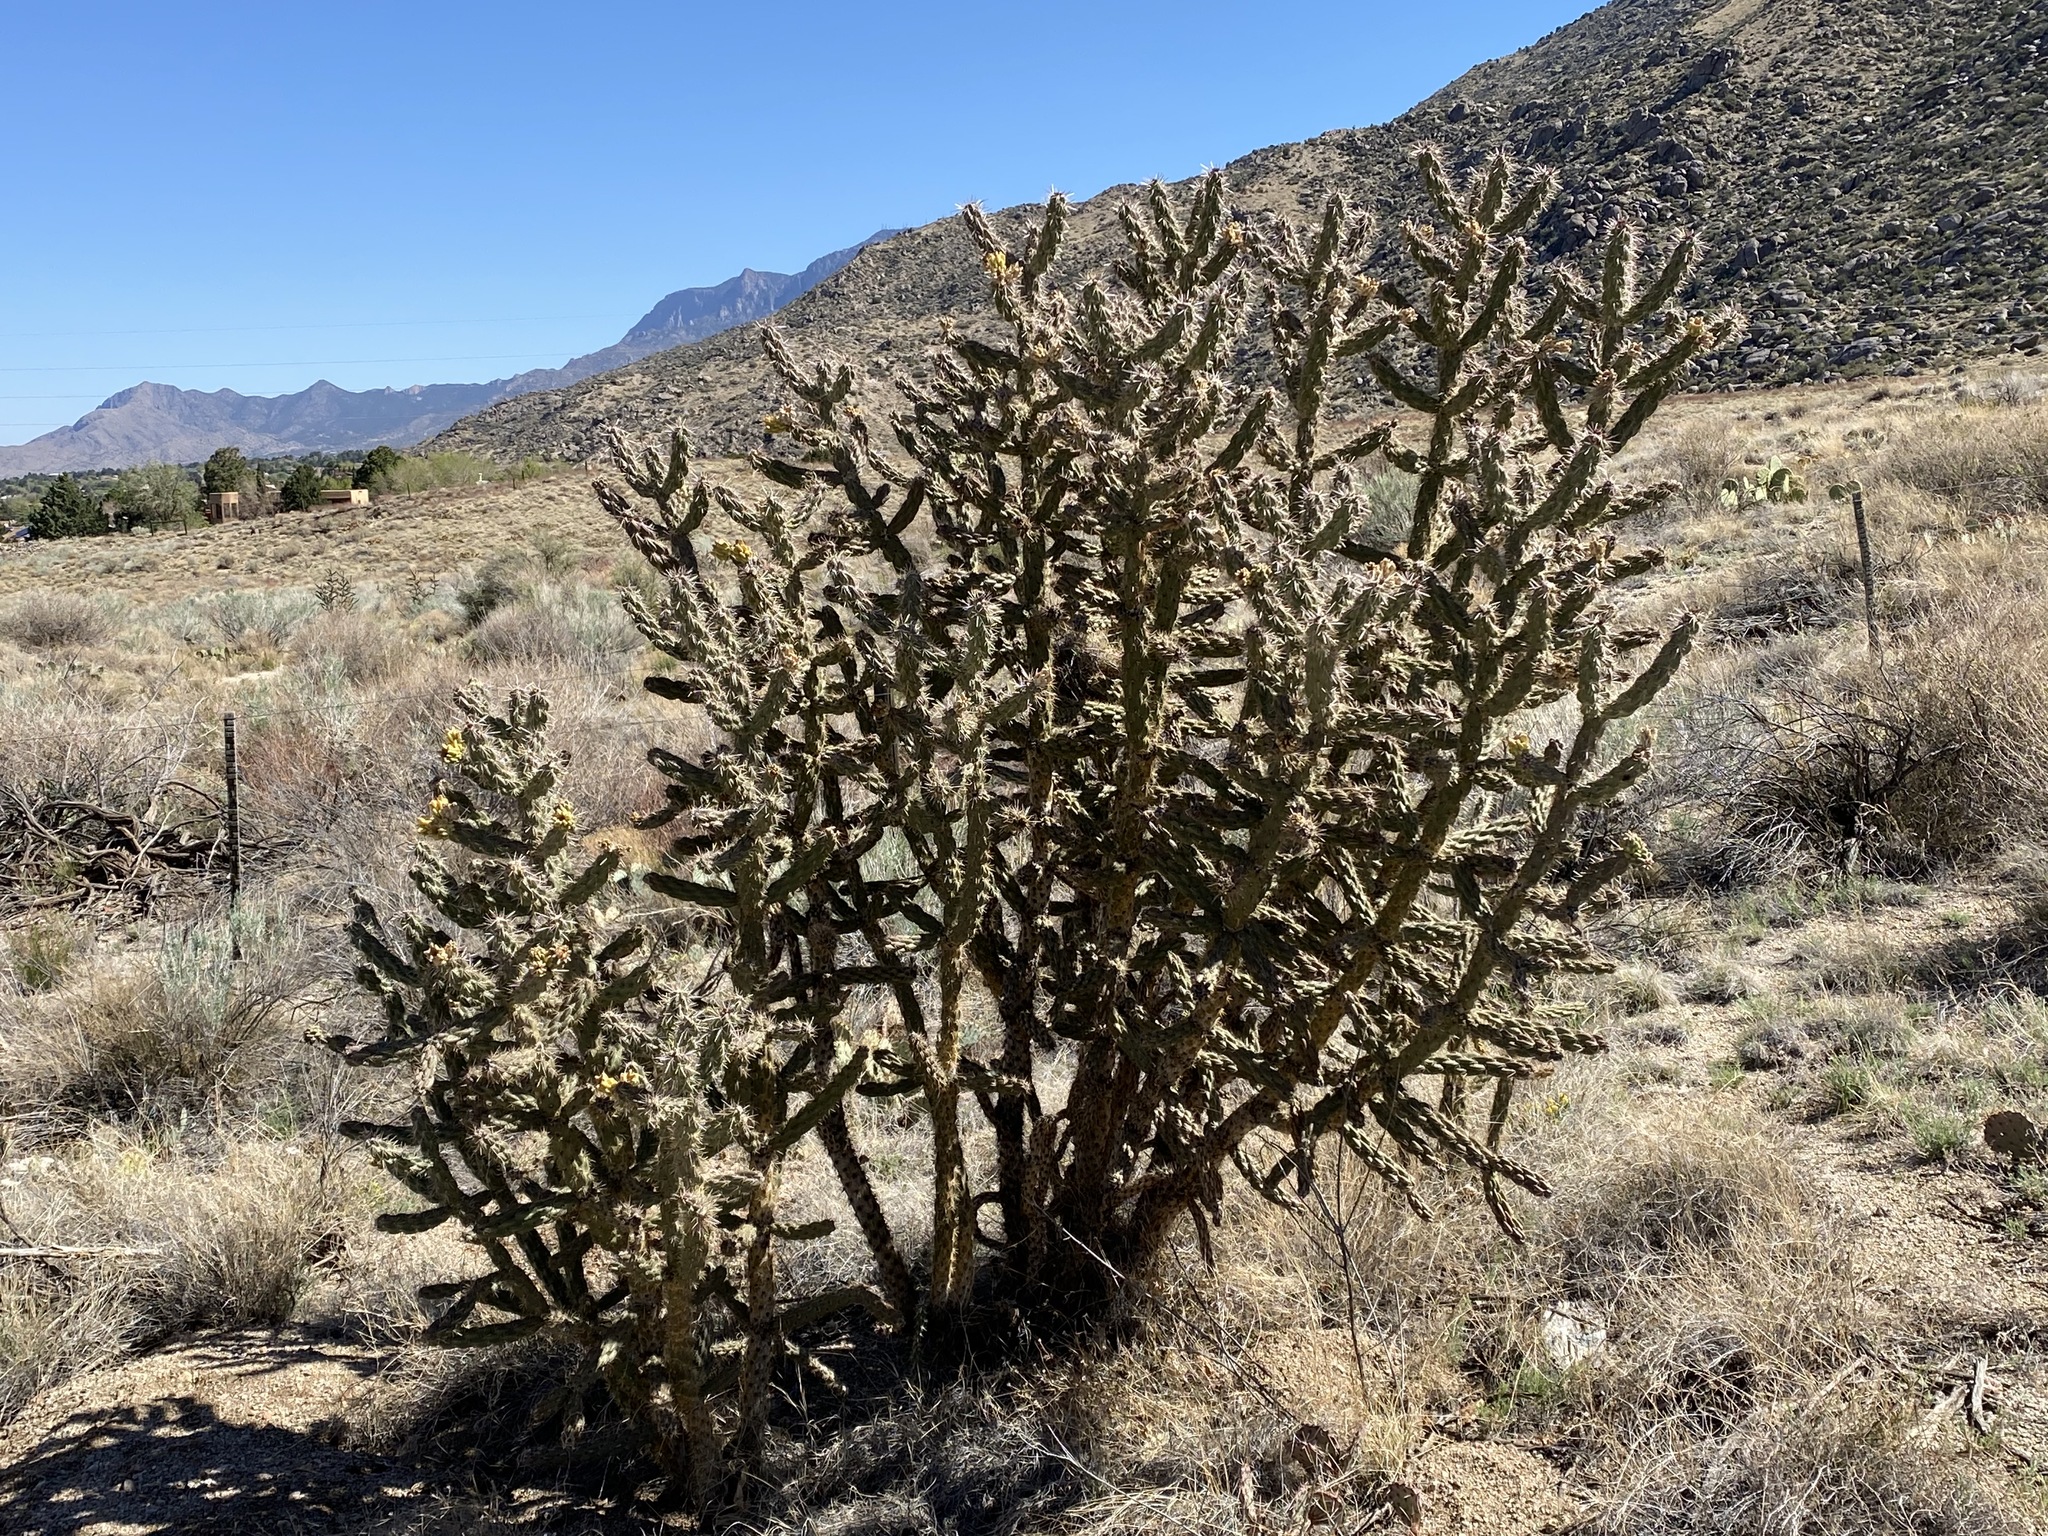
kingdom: Plantae
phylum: Tracheophyta
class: Magnoliopsida
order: Caryophyllales
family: Cactaceae
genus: Cylindropuntia
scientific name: Cylindropuntia imbricata
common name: Candelabrum cactus
